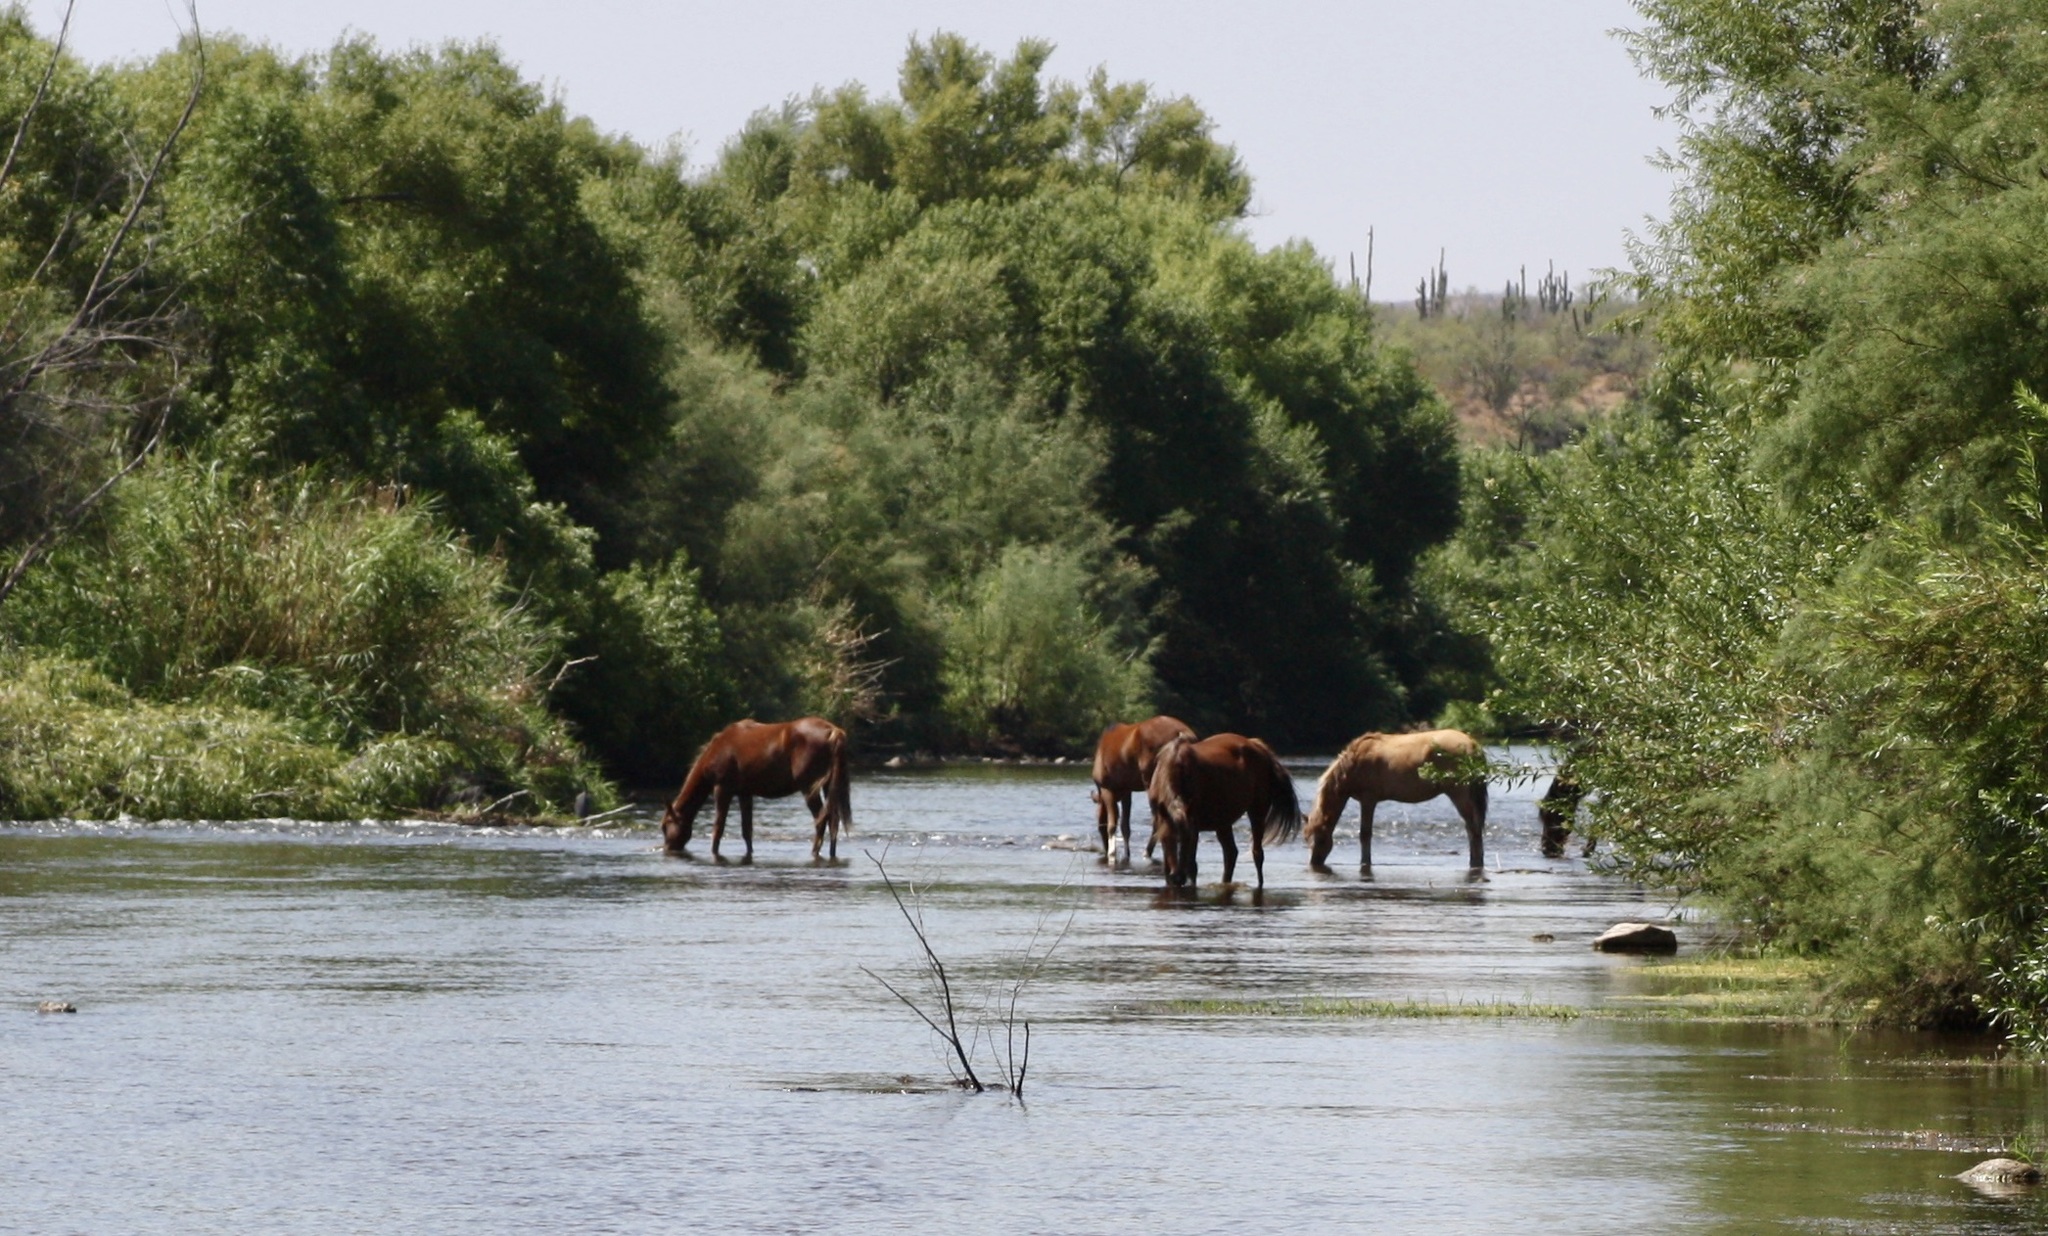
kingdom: Animalia
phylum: Chordata
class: Mammalia
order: Perissodactyla
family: Equidae
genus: Equus
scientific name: Equus caballus
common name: Horse
